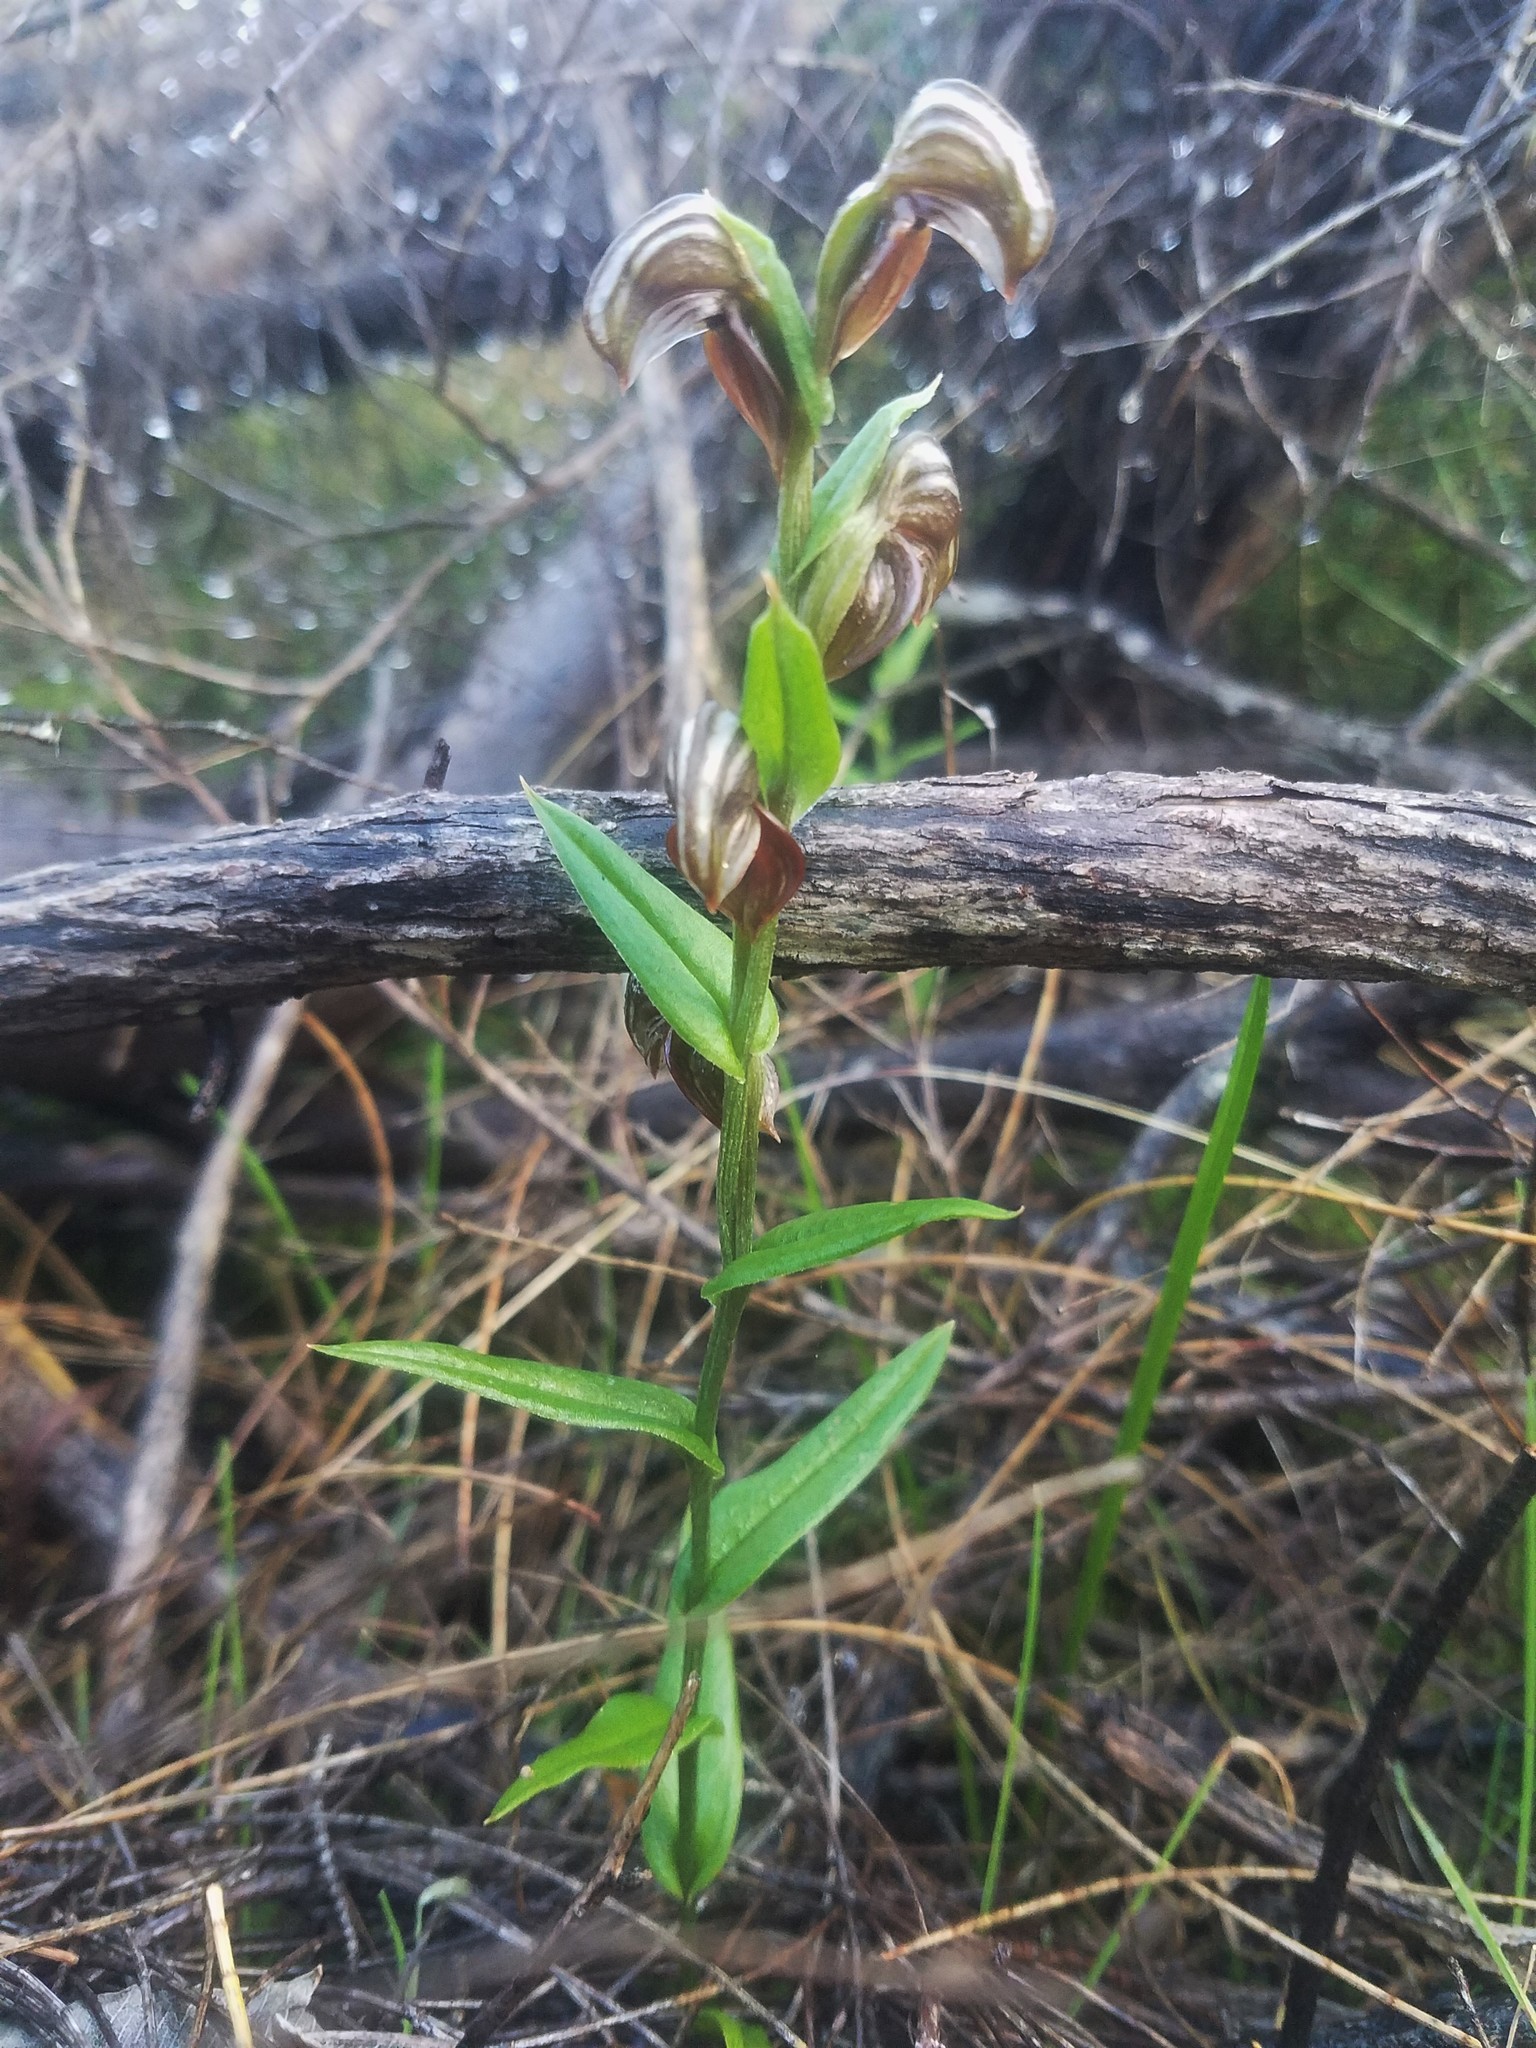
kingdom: Plantae
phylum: Tracheophyta
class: Liliopsida
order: Asparagales
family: Orchidaceae
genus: Pterostylis
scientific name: Pterostylis sanguinea
